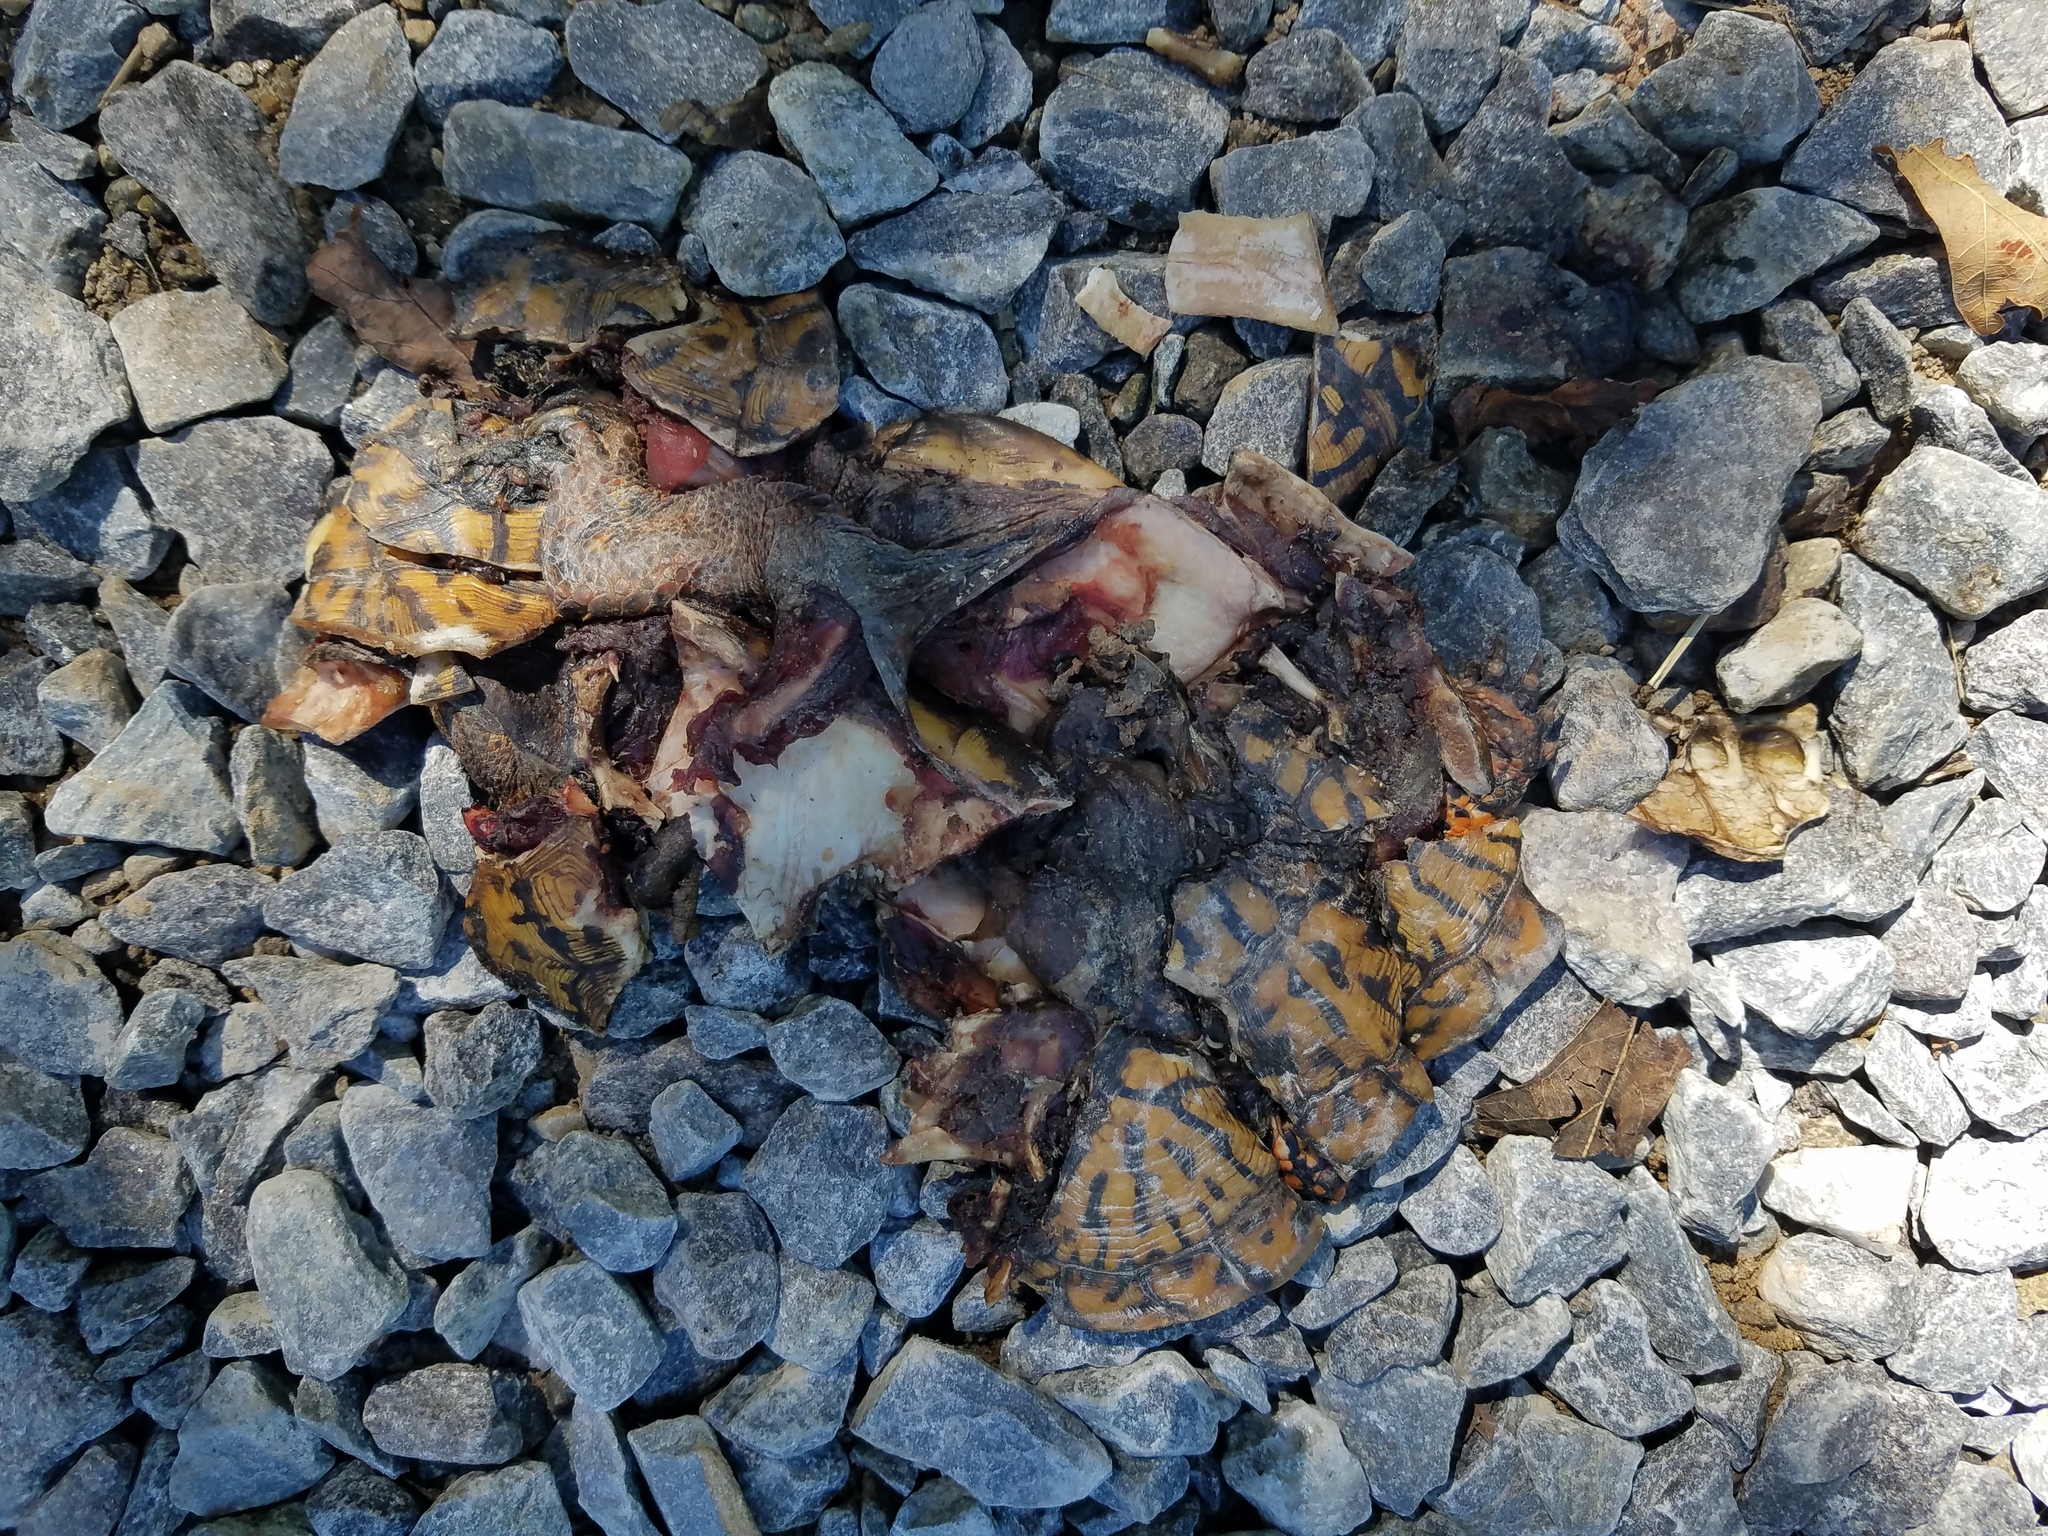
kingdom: Animalia
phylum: Chordata
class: Testudines
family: Emydidae
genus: Terrapene
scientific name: Terrapene carolina
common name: Common box turtle
